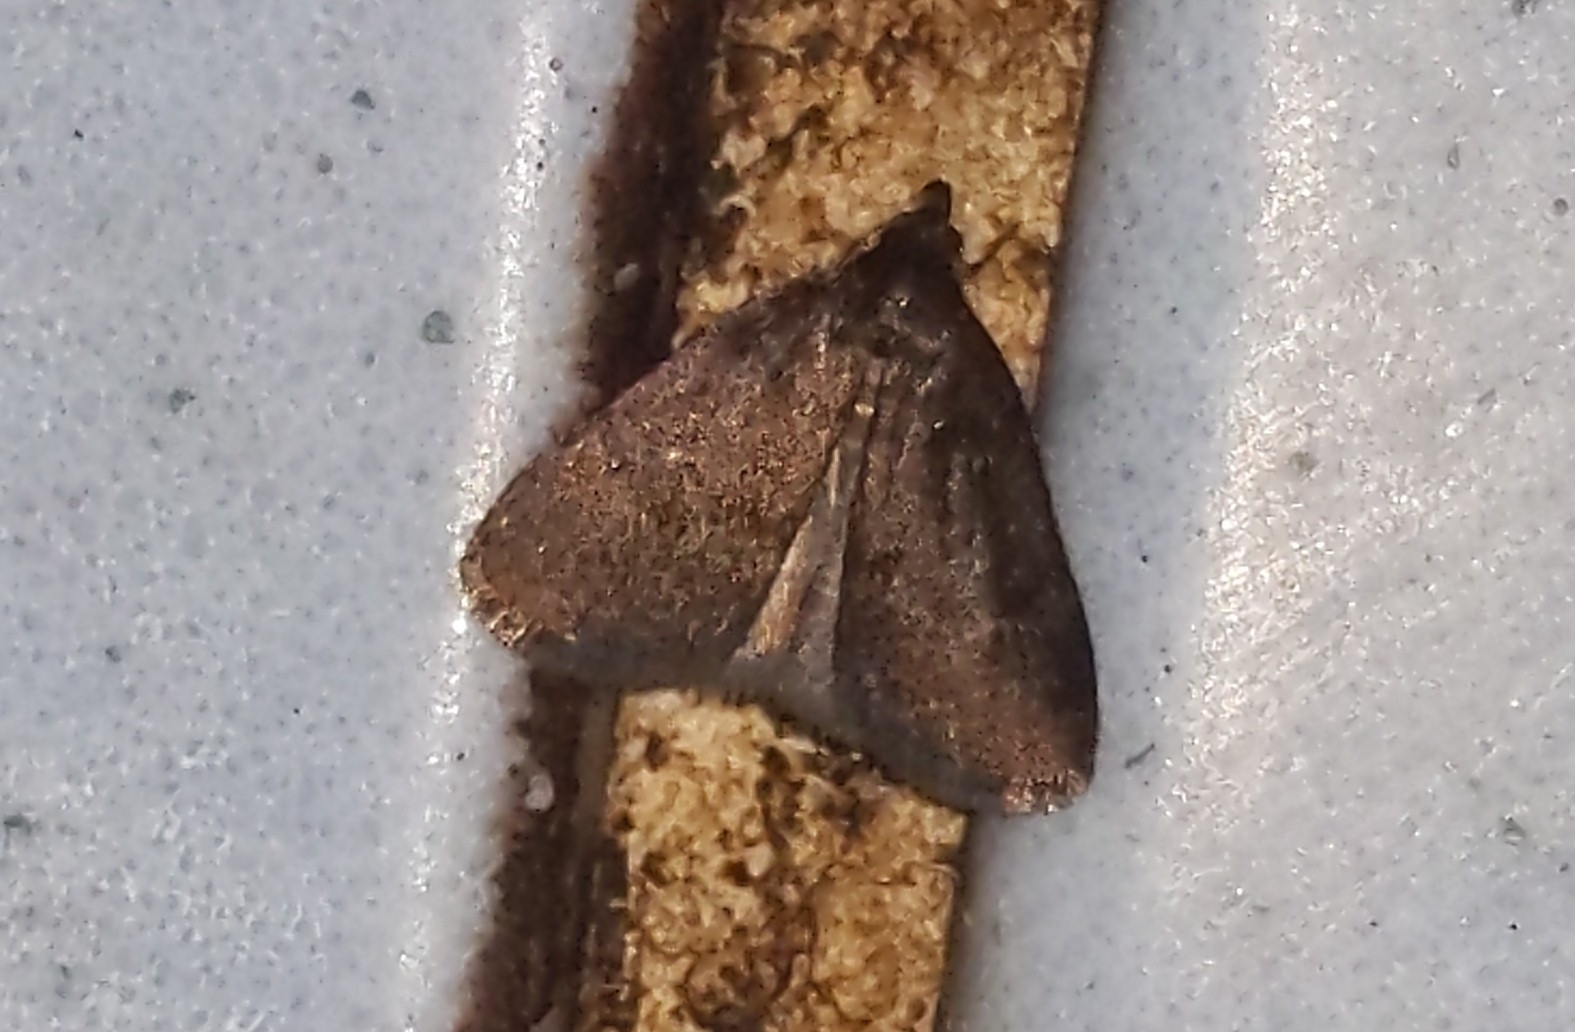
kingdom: Animalia
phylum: Arthropoda
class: Insecta
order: Lepidoptera
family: Erebidae
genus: Idia
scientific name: Idia rotundalis
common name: Rotund idia moth
